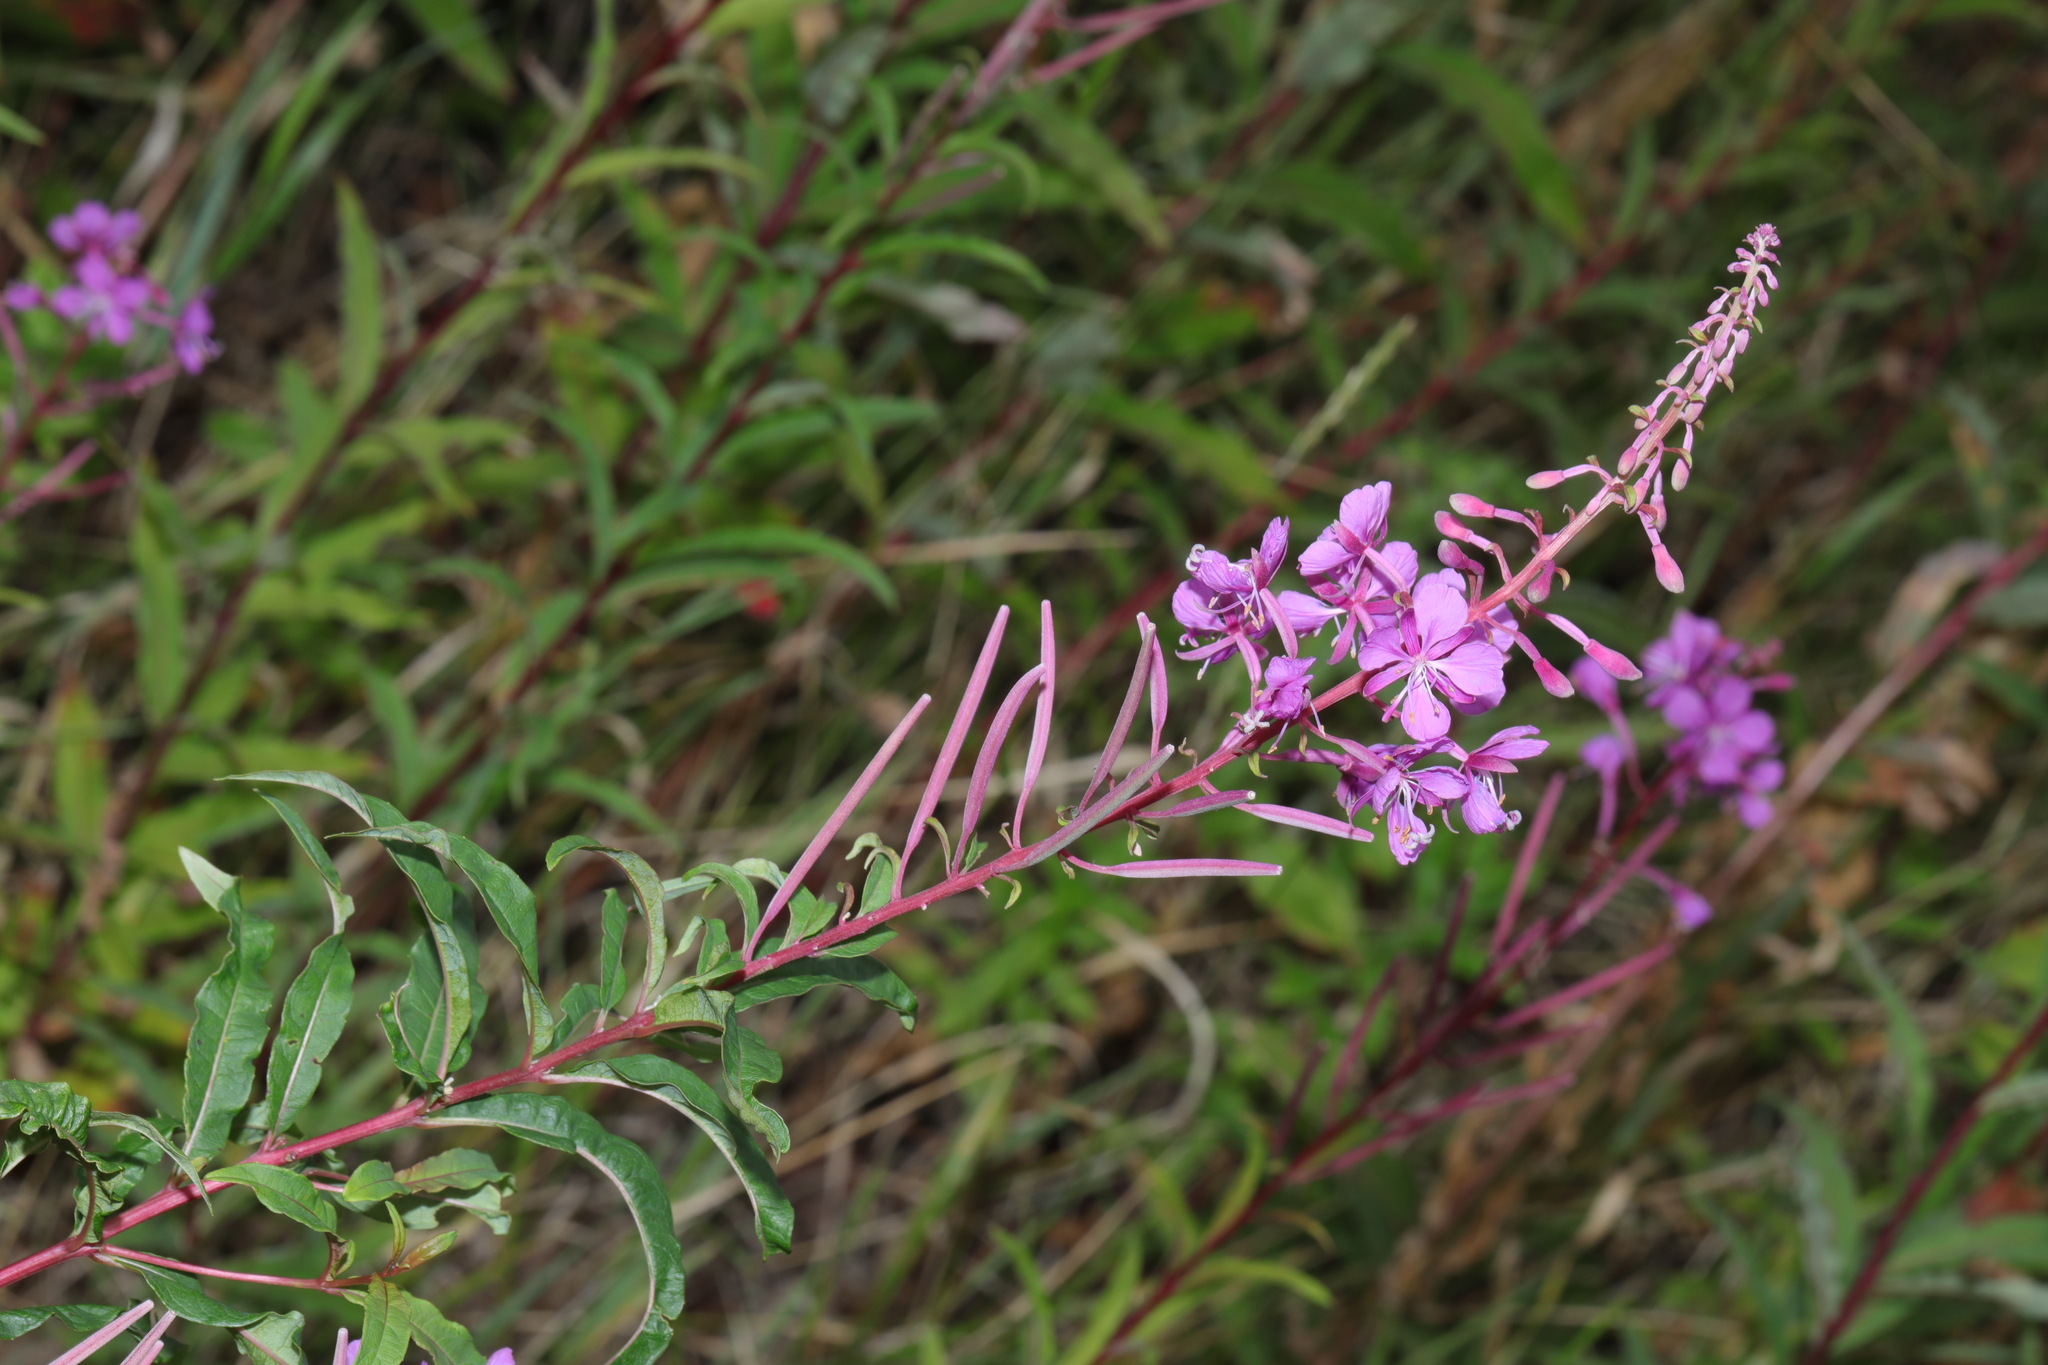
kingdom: Plantae
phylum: Tracheophyta
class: Magnoliopsida
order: Myrtales
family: Onagraceae
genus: Chamaenerion
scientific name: Chamaenerion angustifolium
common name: Fireweed
